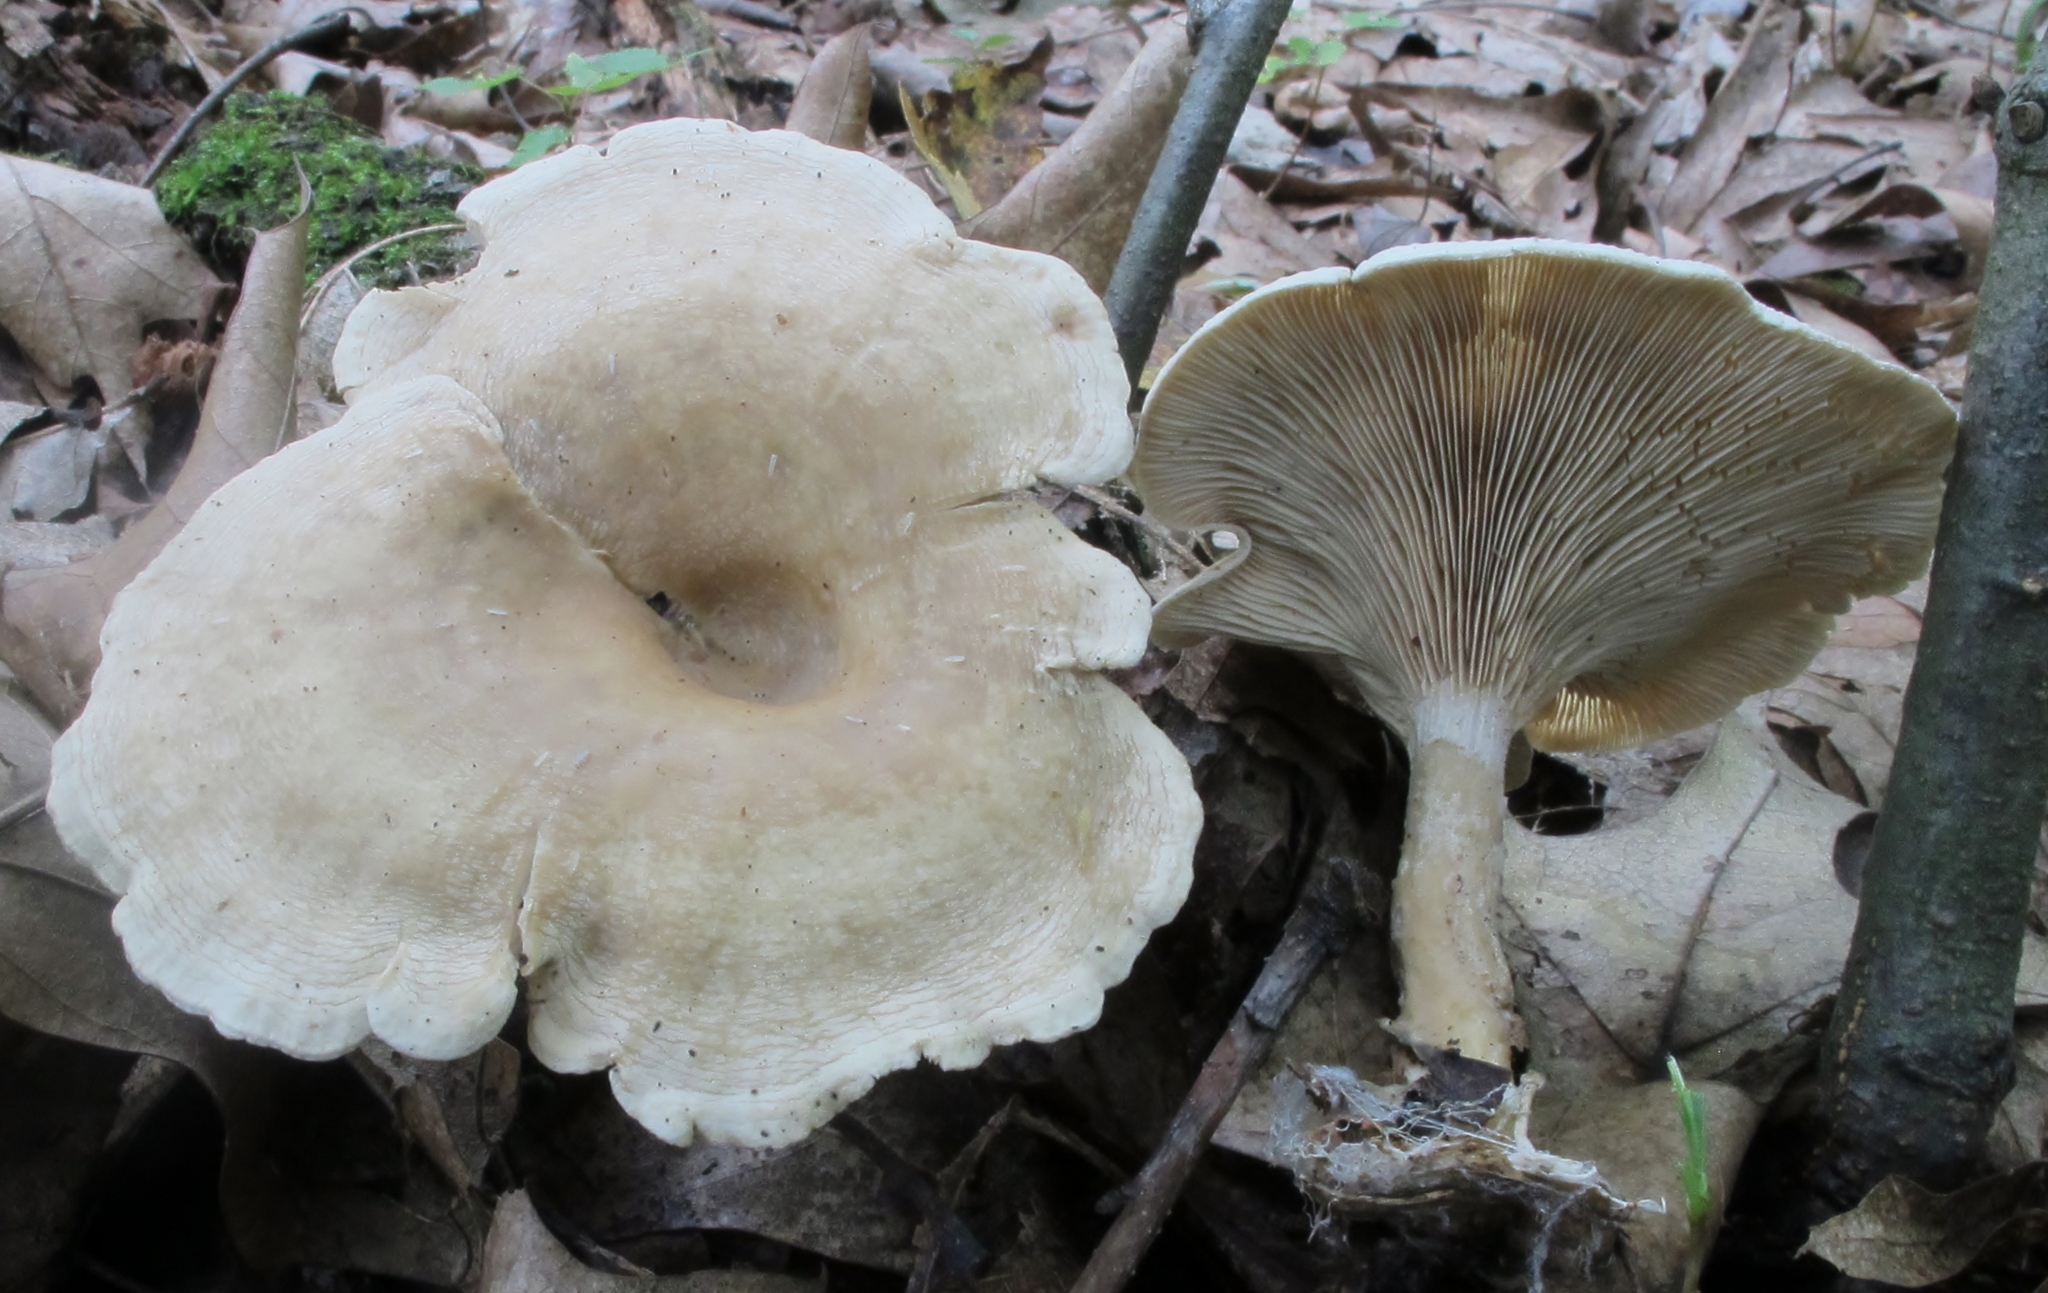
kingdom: Fungi
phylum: Basidiomycota
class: Agaricomycetes
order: Agaricales
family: Tricholomataceae
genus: Lulesia
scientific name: Lulesia
